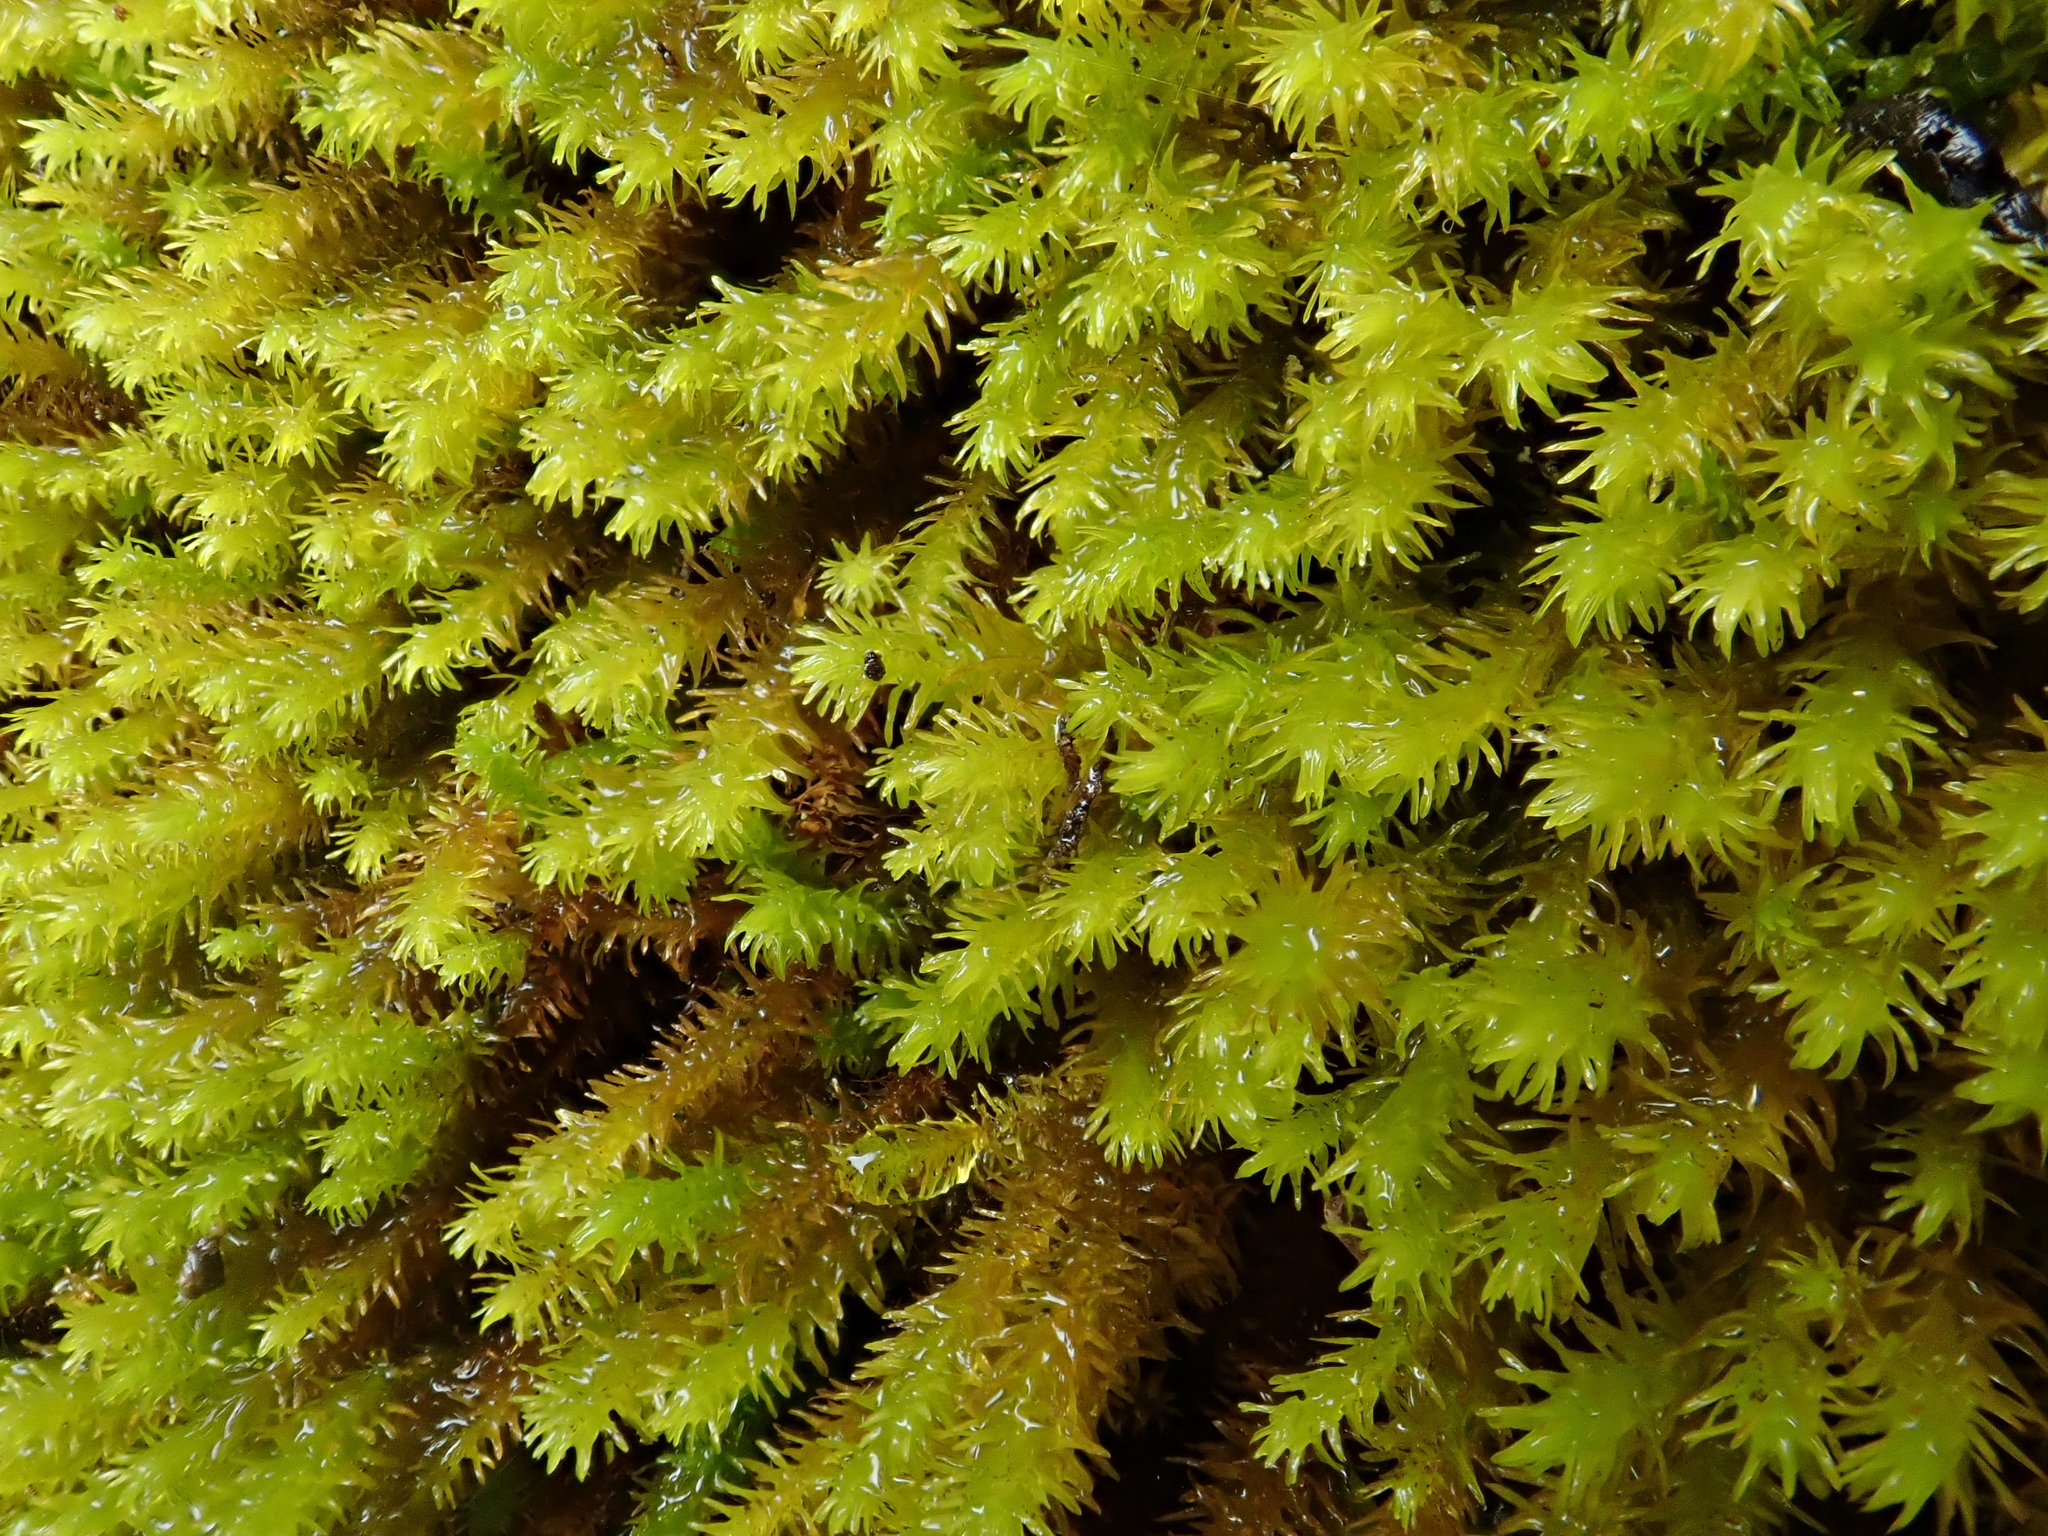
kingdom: Plantae
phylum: Bryophyta
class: Bryopsida
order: Hypnales
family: Anomodontaceae
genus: Anomodon
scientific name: Anomodon viticulosus
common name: Tall anomodon
